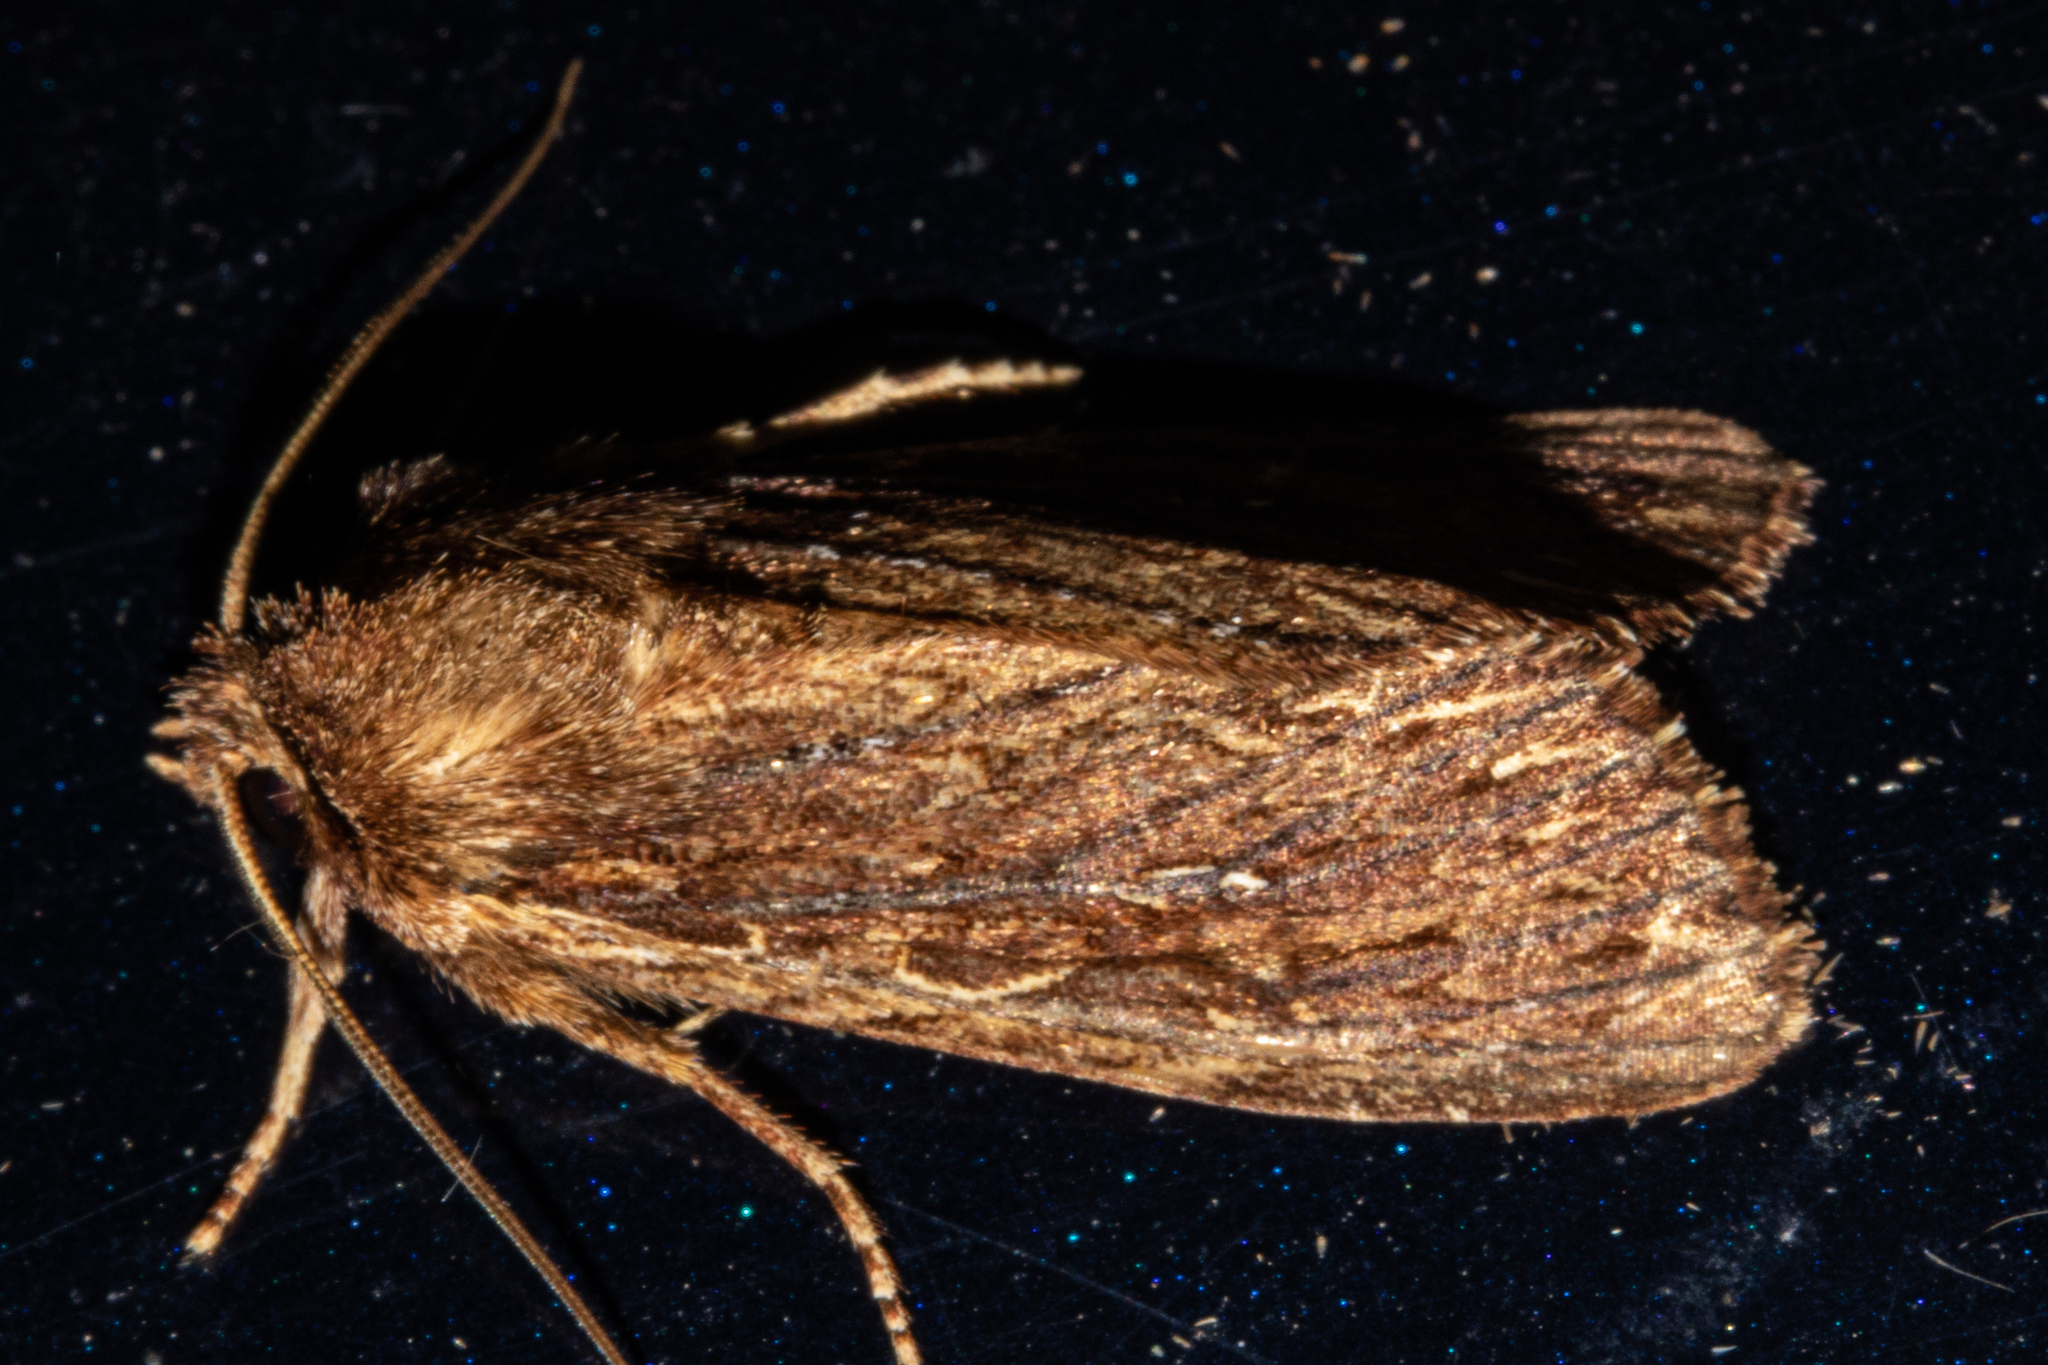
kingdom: Animalia
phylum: Arthropoda
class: Insecta
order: Lepidoptera
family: Noctuidae
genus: Ichneutica
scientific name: Ichneutica
